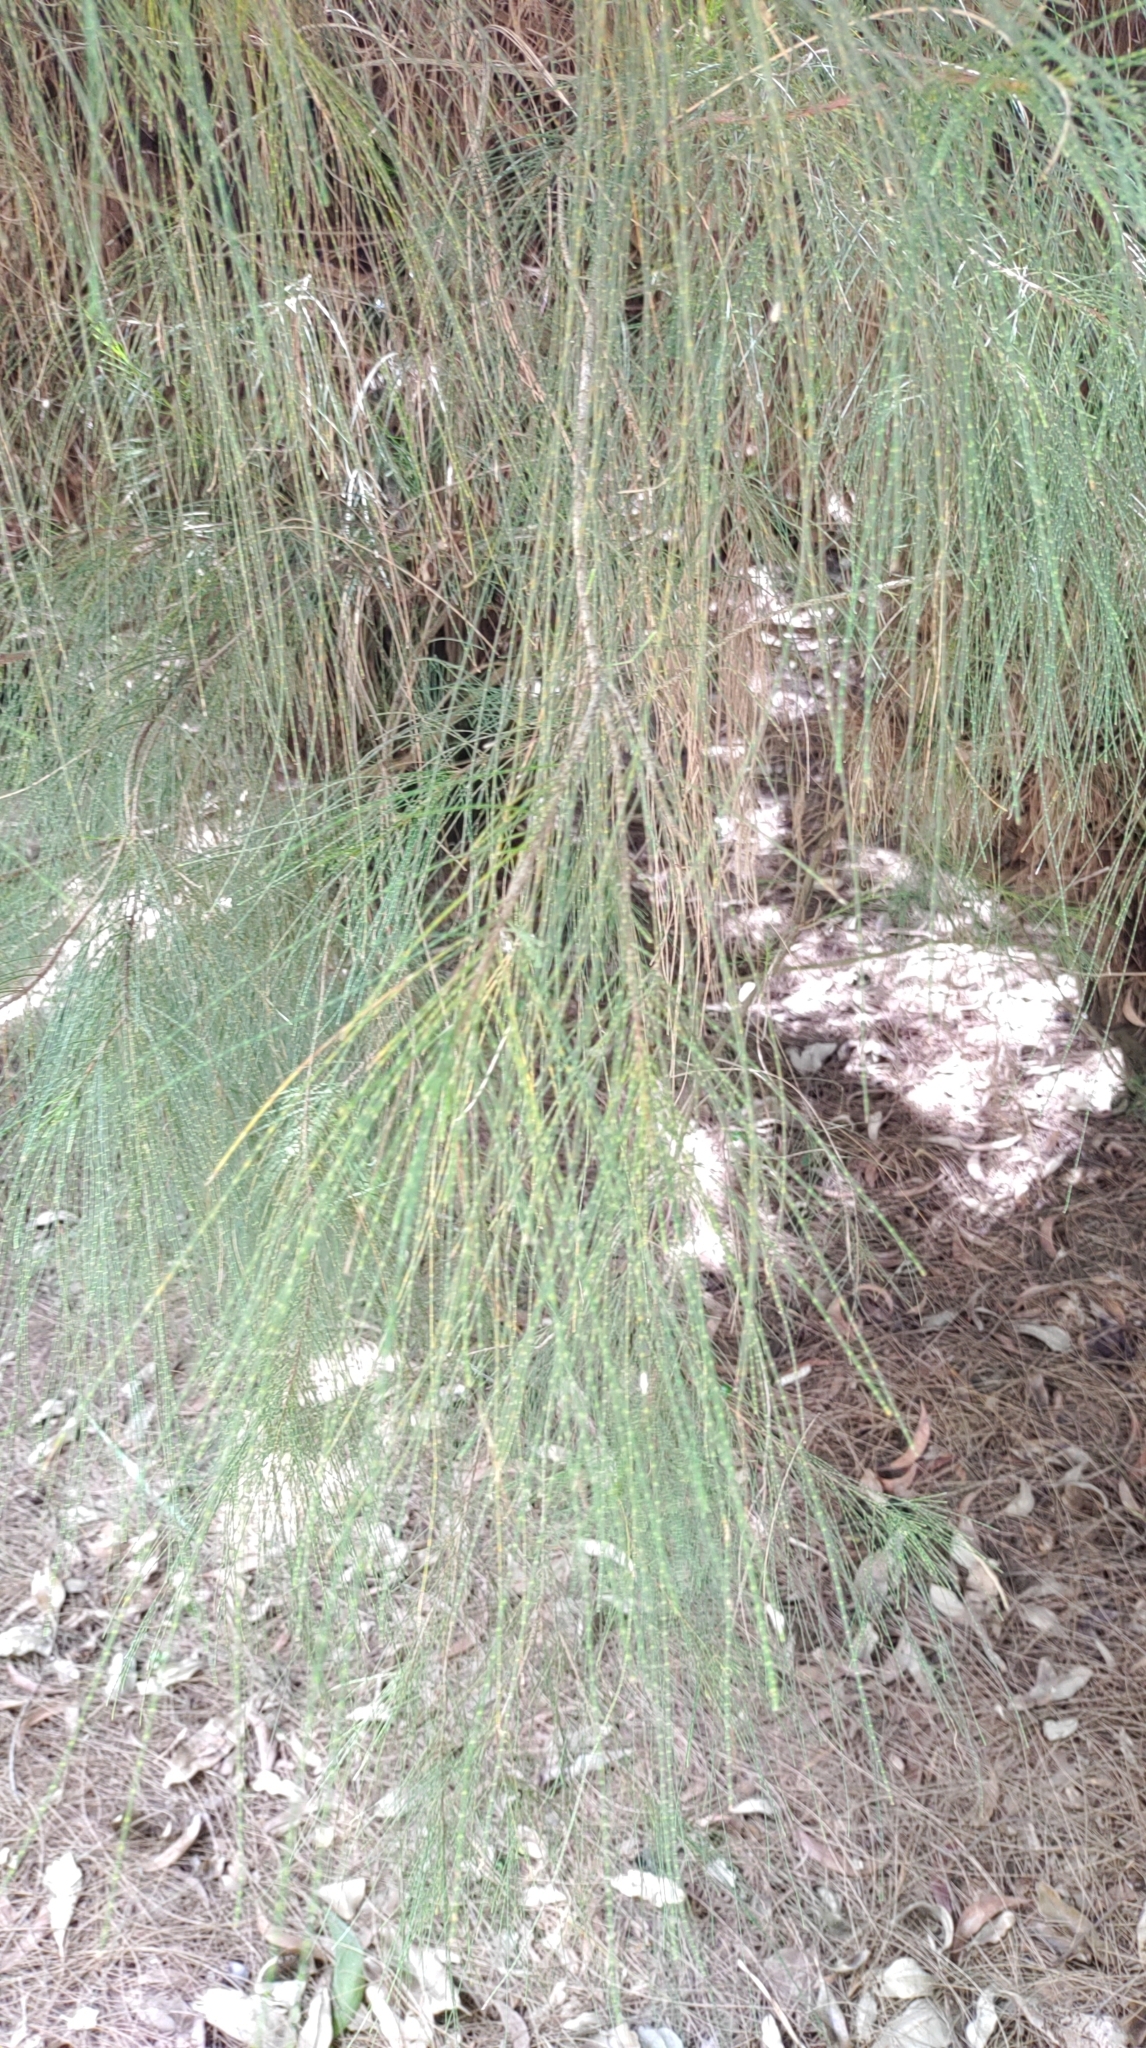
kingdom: Plantae
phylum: Tracheophyta
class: Magnoliopsida
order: Fagales
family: Casuarinaceae
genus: Casuarina
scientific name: Casuarina equisetifolia
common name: Beach sheoak
